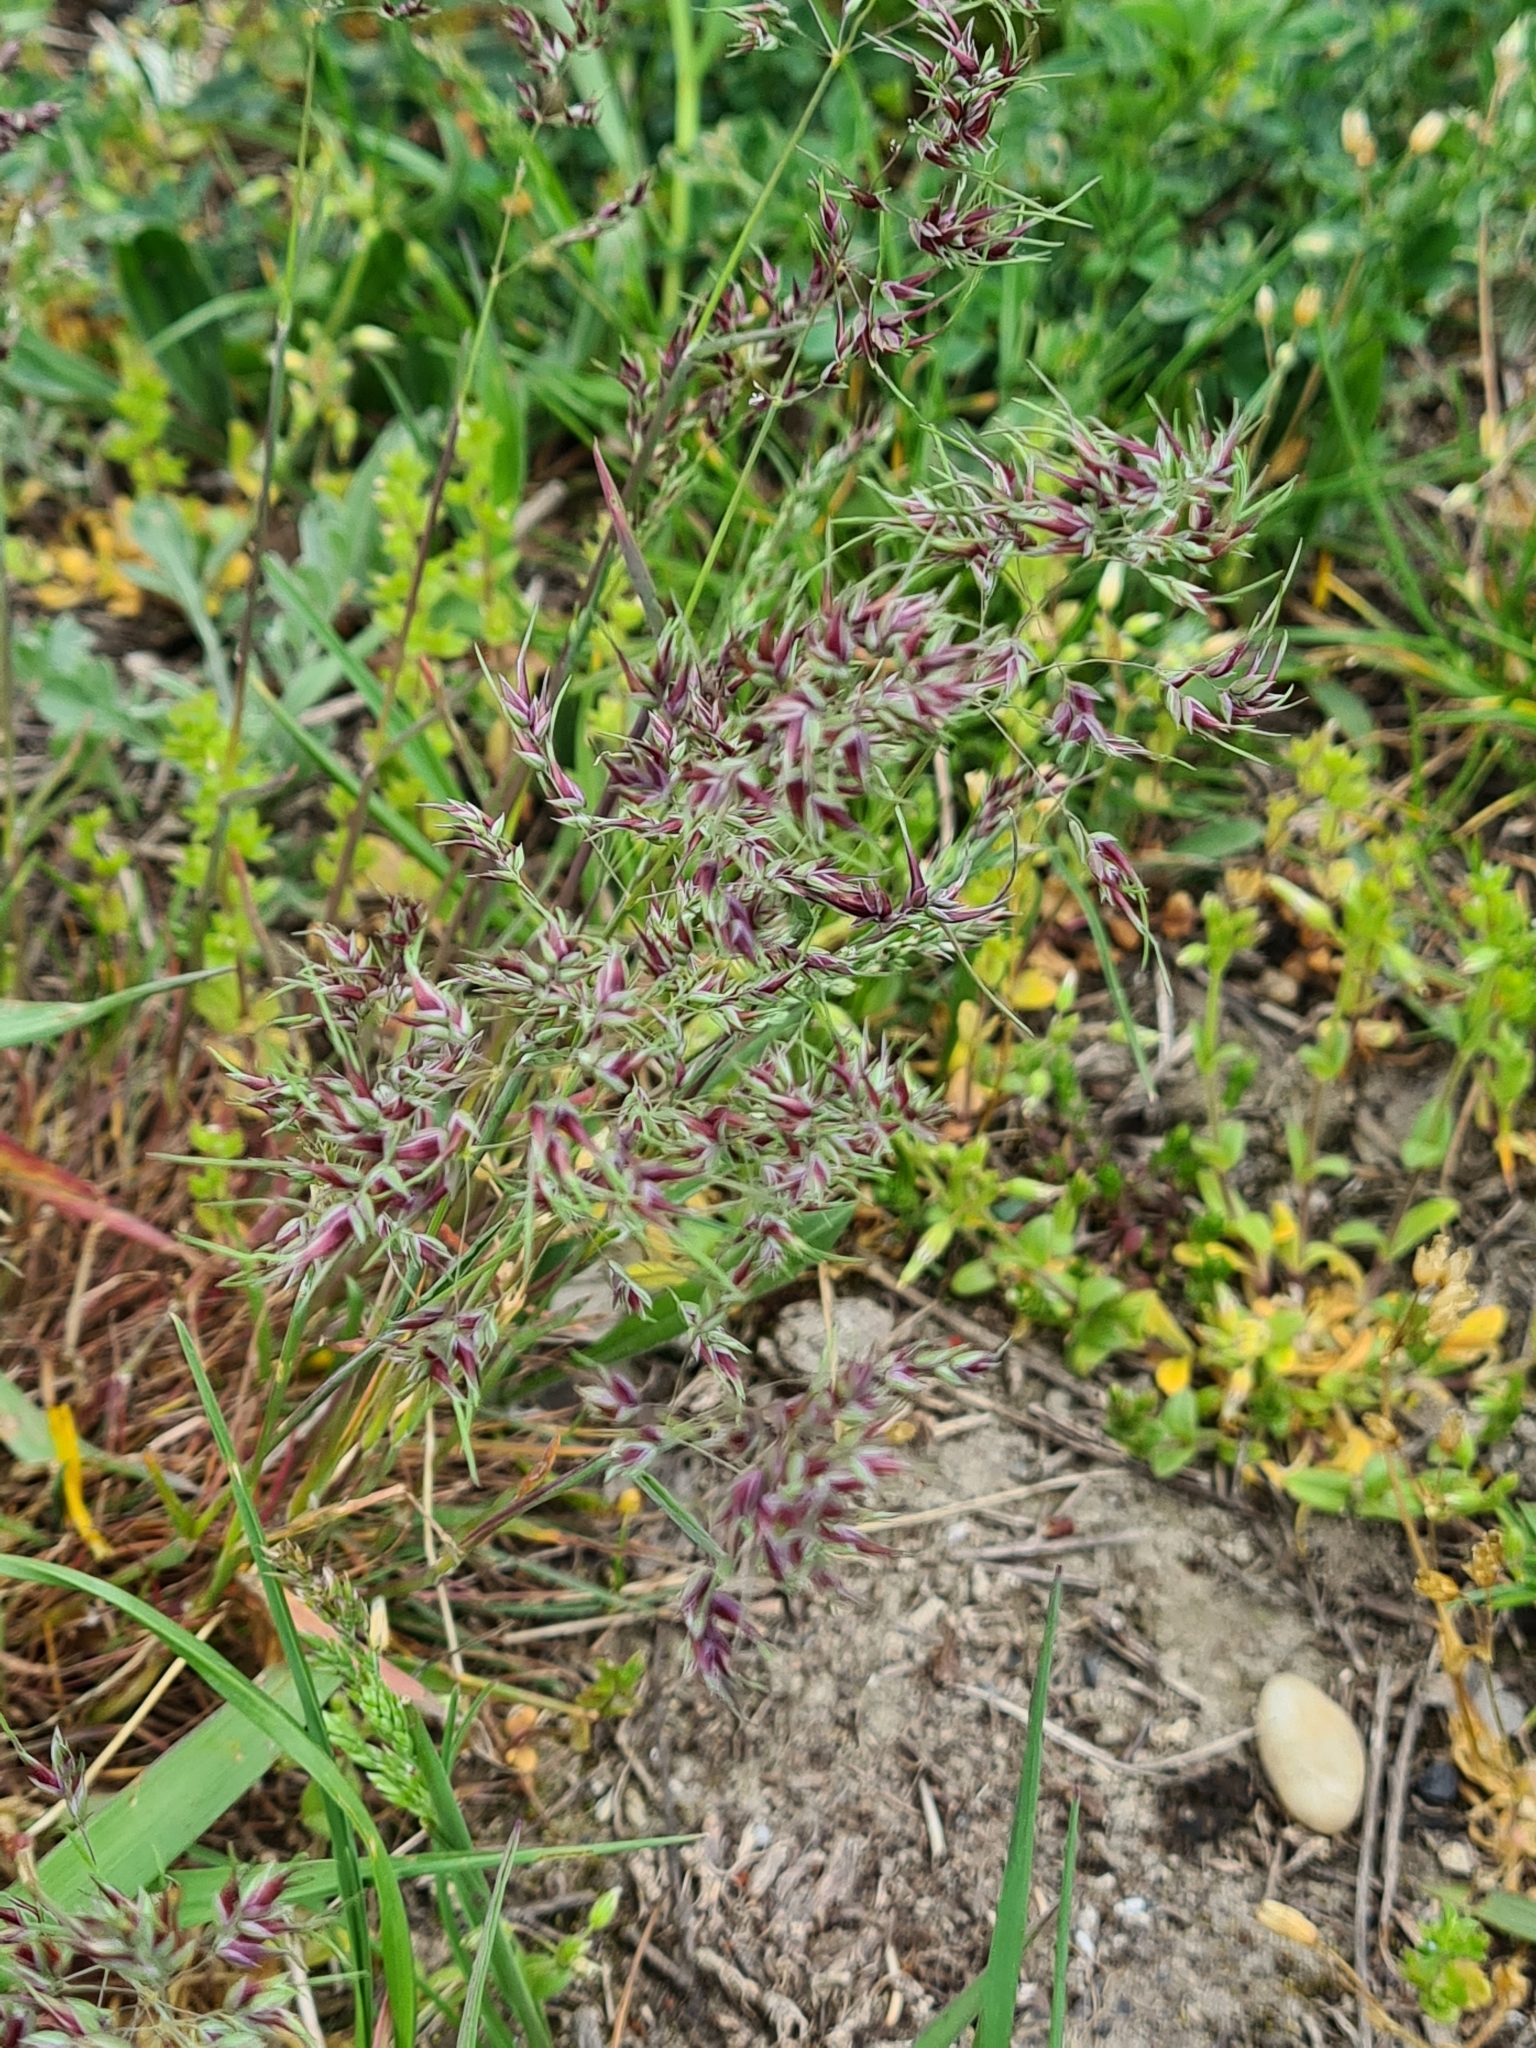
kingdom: Plantae
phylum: Tracheophyta
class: Liliopsida
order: Poales
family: Poaceae
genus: Poa
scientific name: Poa bulbosa
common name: Bulbous bluegrass
